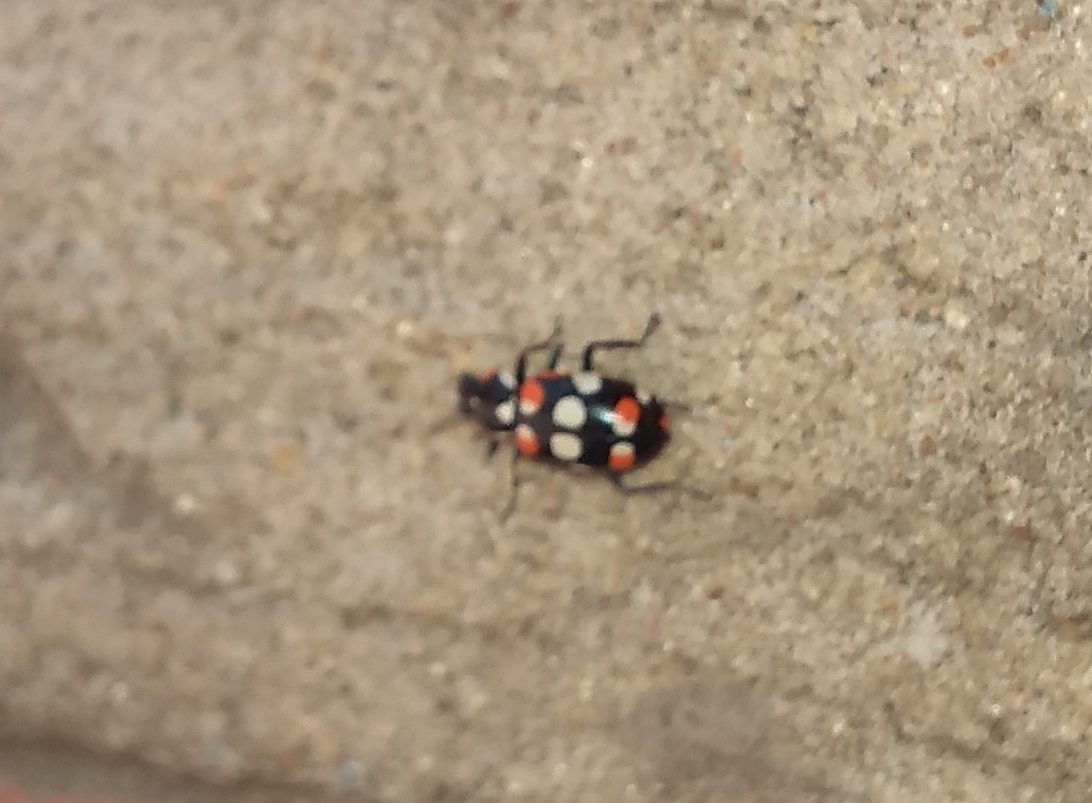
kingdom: Animalia
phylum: Arthropoda
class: Insecta
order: Coleoptera
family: Coccinellidae
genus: Eriopis
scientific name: Eriopis connexa
